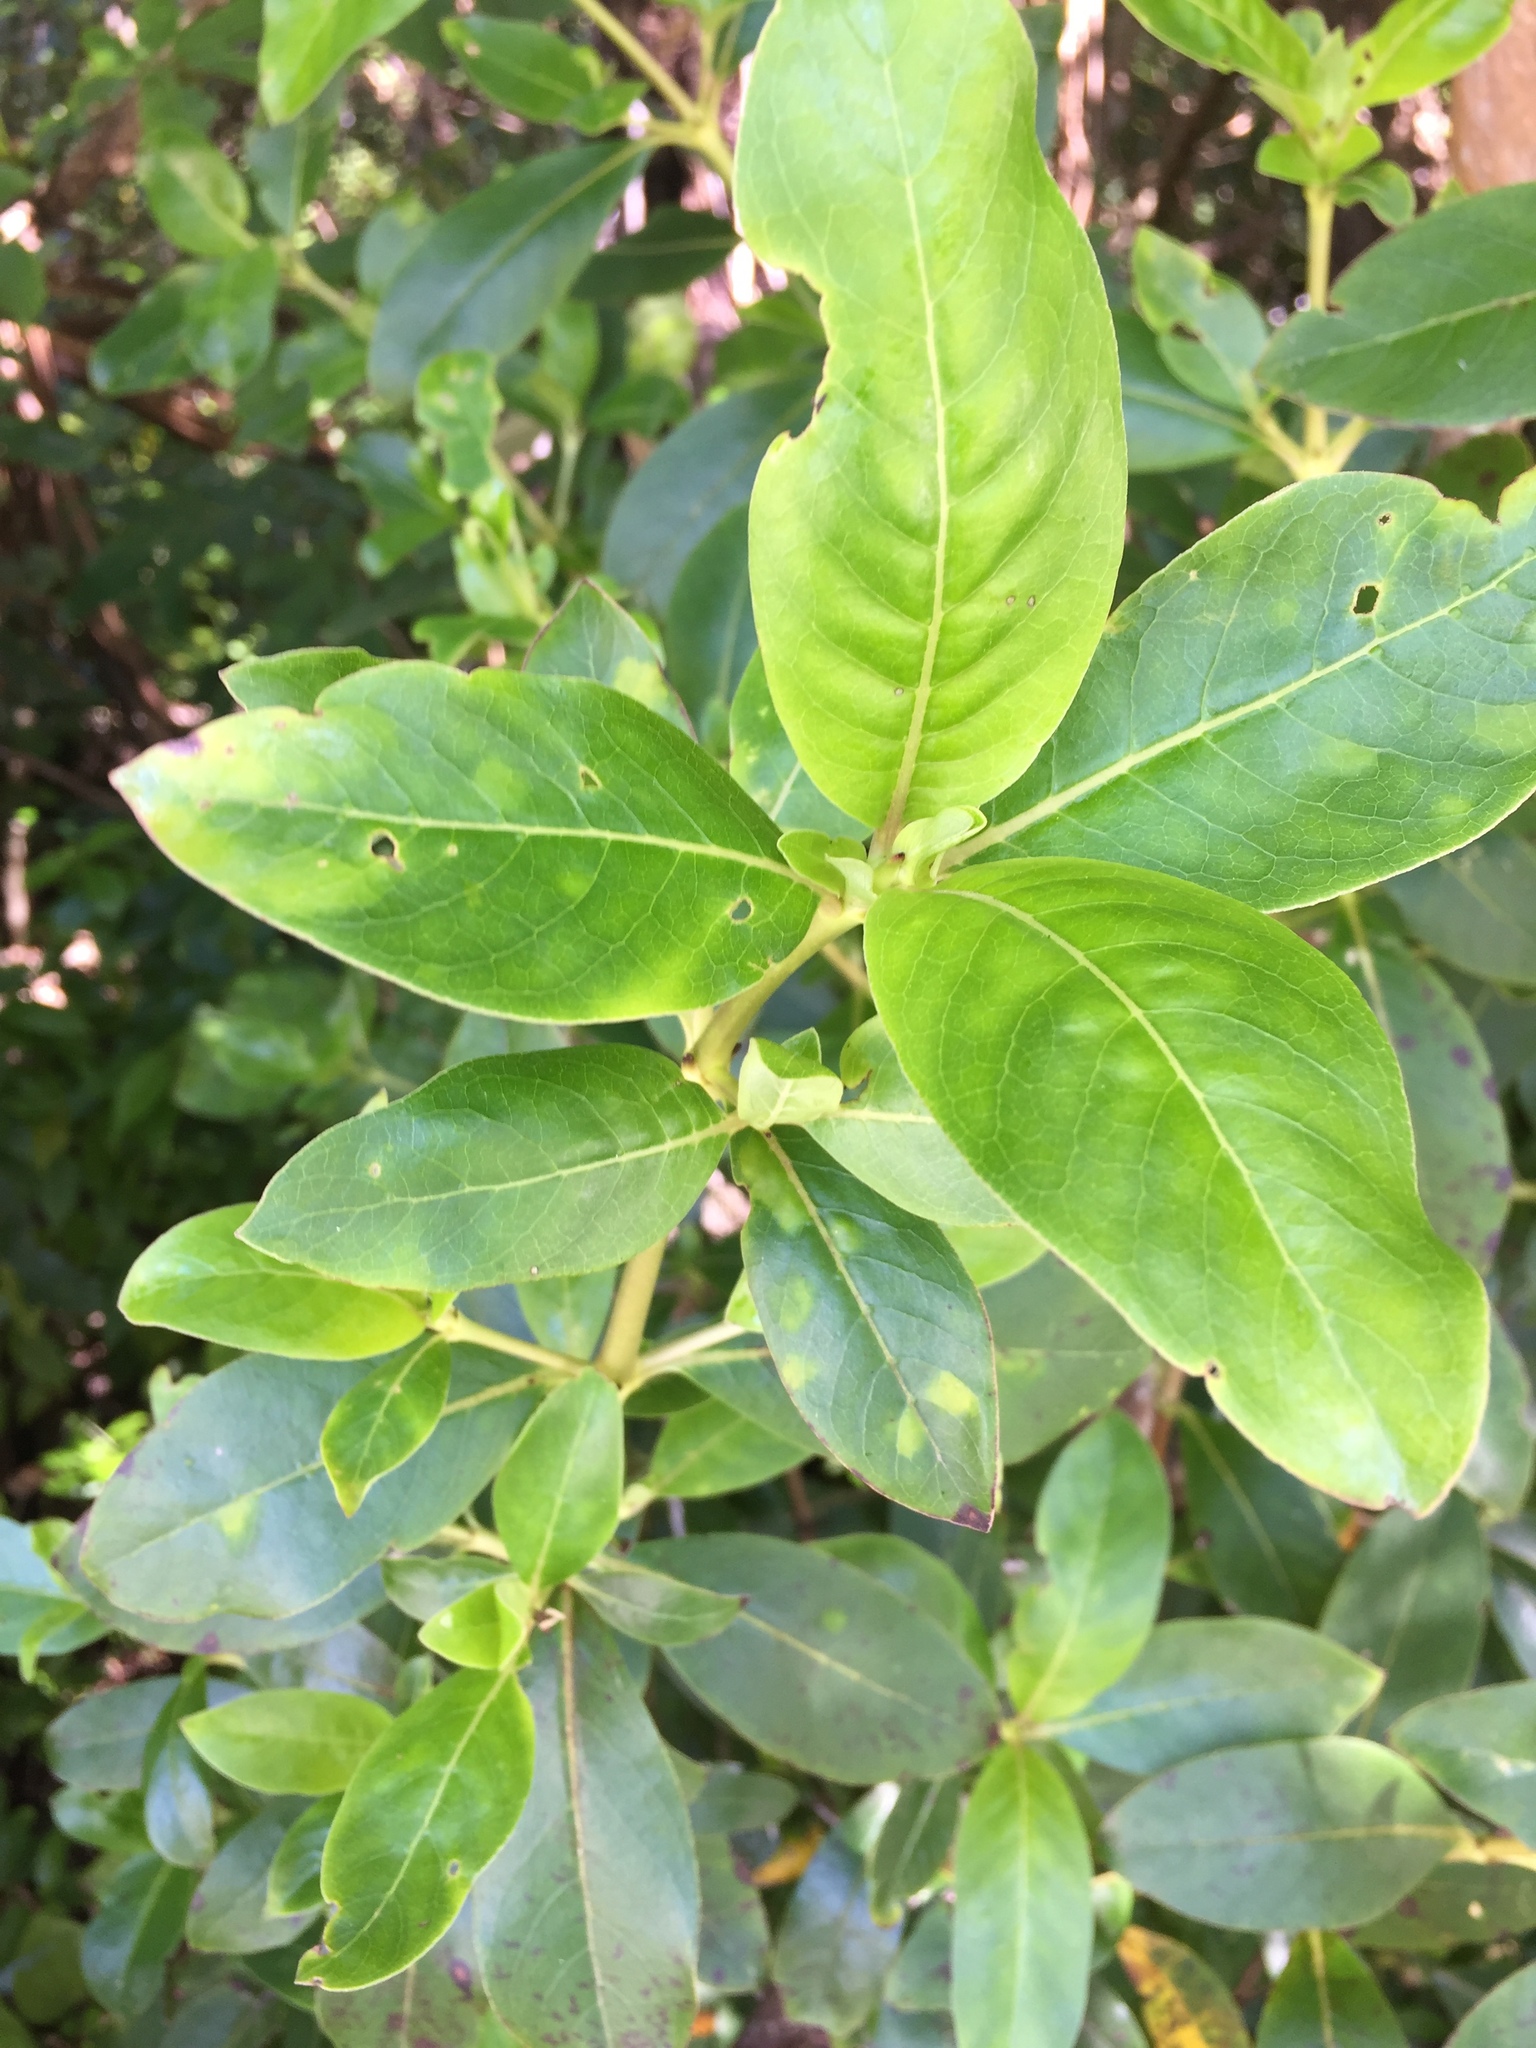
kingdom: Plantae
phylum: Tracheophyta
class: Magnoliopsida
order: Gentianales
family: Rubiaceae
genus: Coprosma
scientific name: Coprosma robusta
